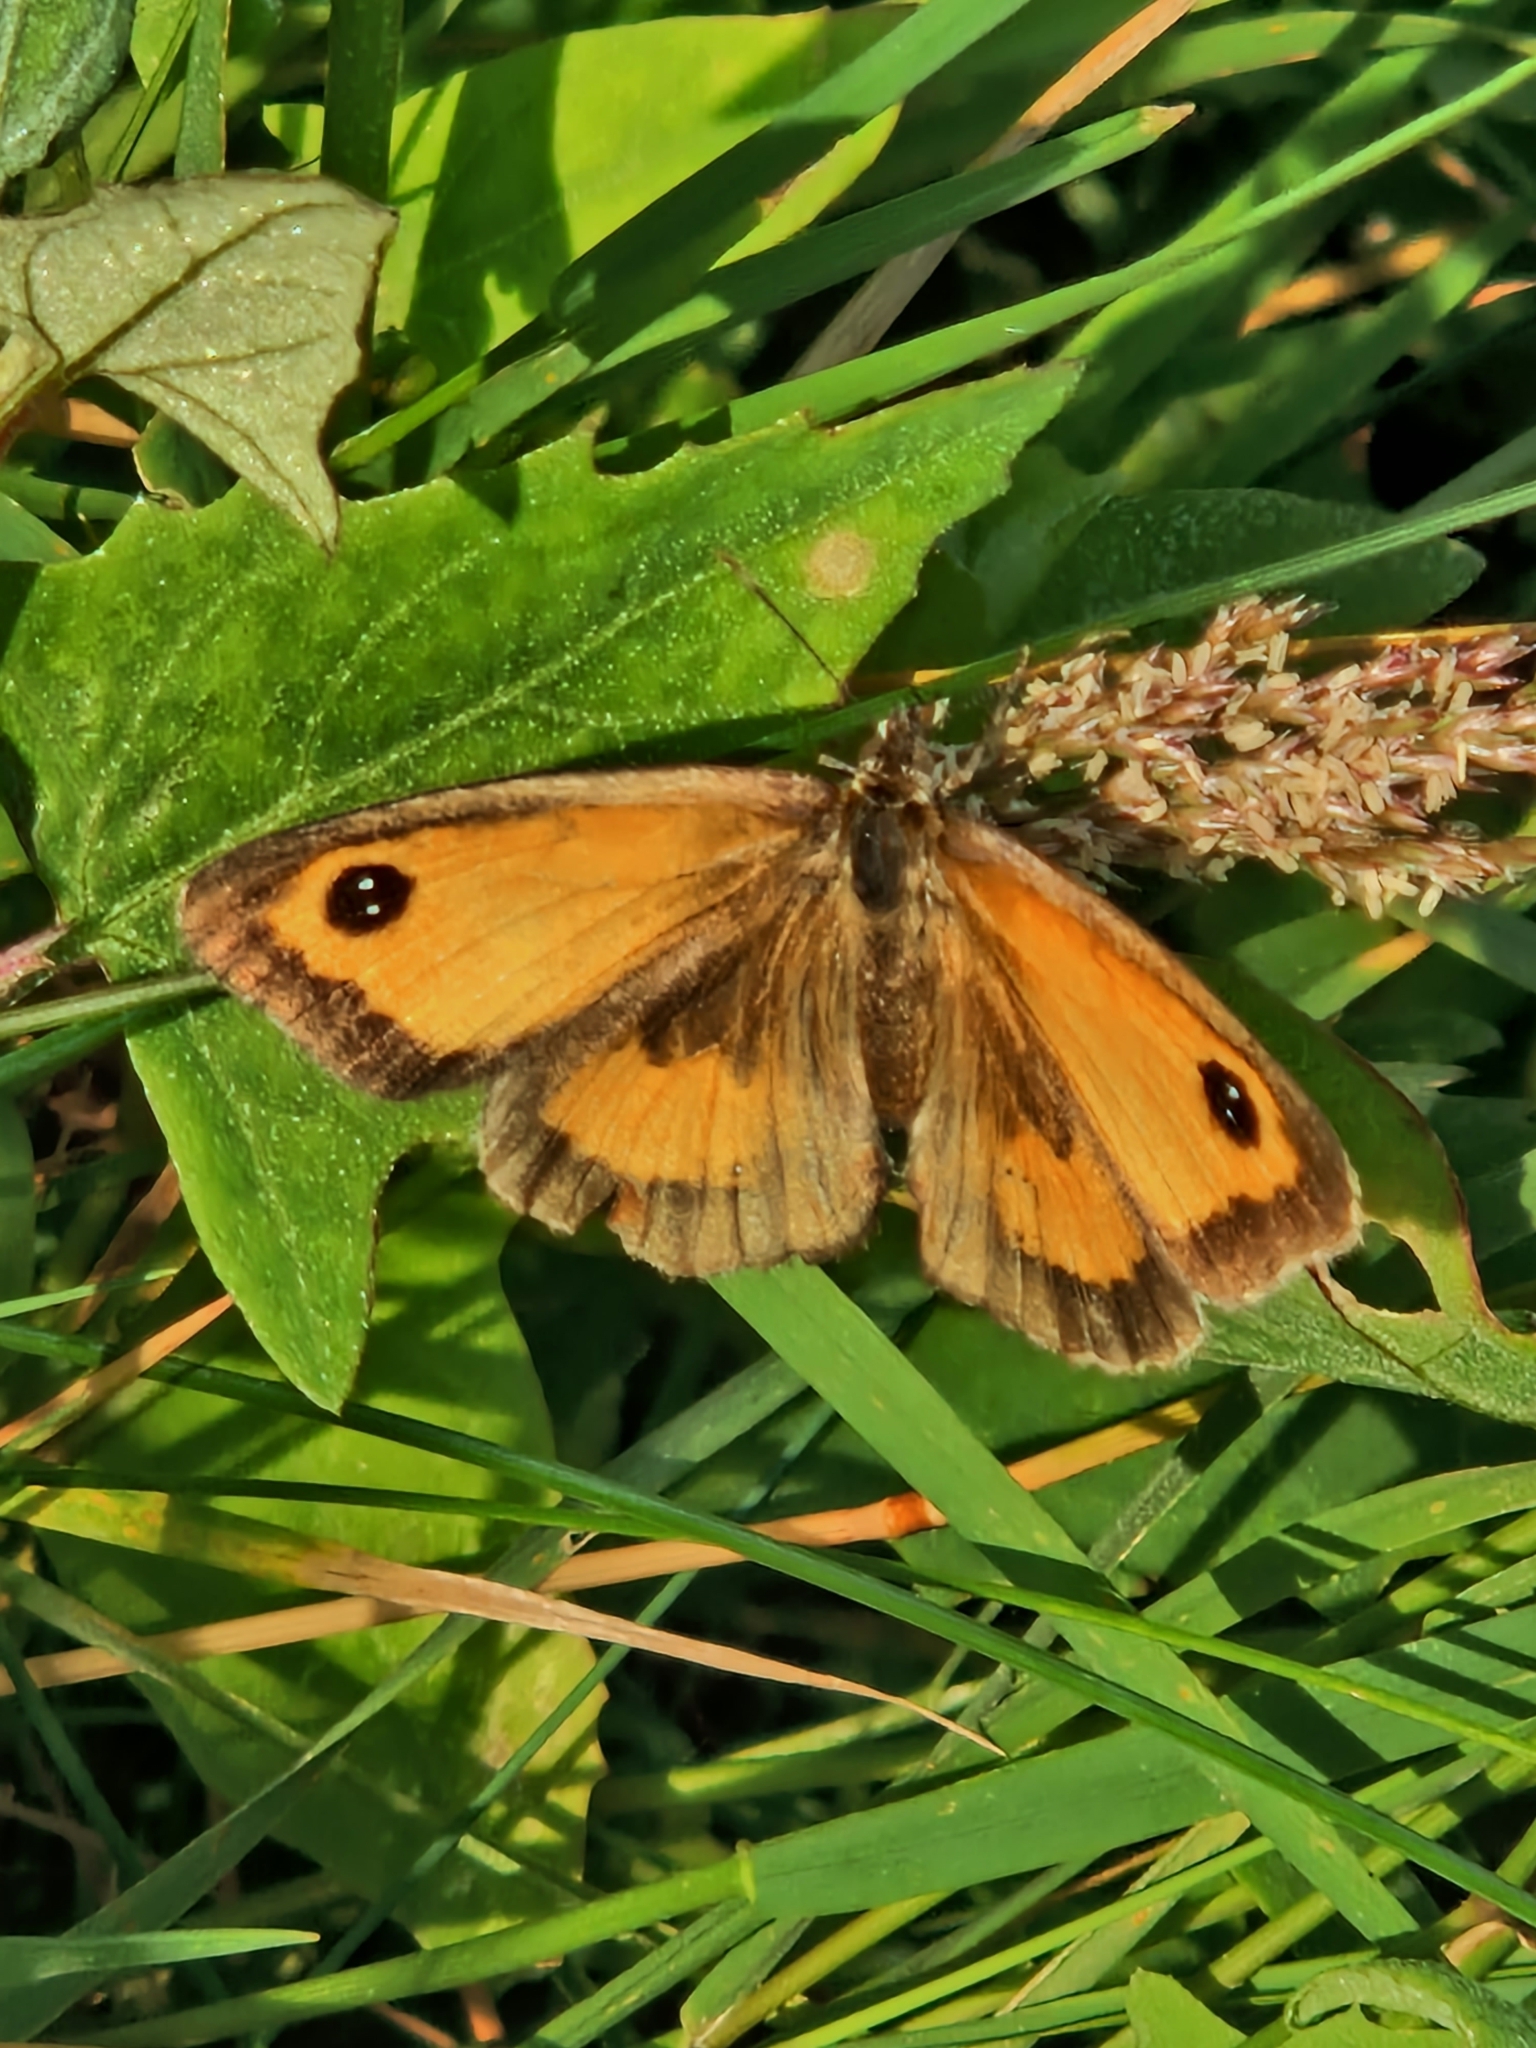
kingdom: Animalia
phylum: Arthropoda
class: Insecta
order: Lepidoptera
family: Nymphalidae
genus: Pyronia
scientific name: Pyronia tithonus
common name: Gatekeeper
